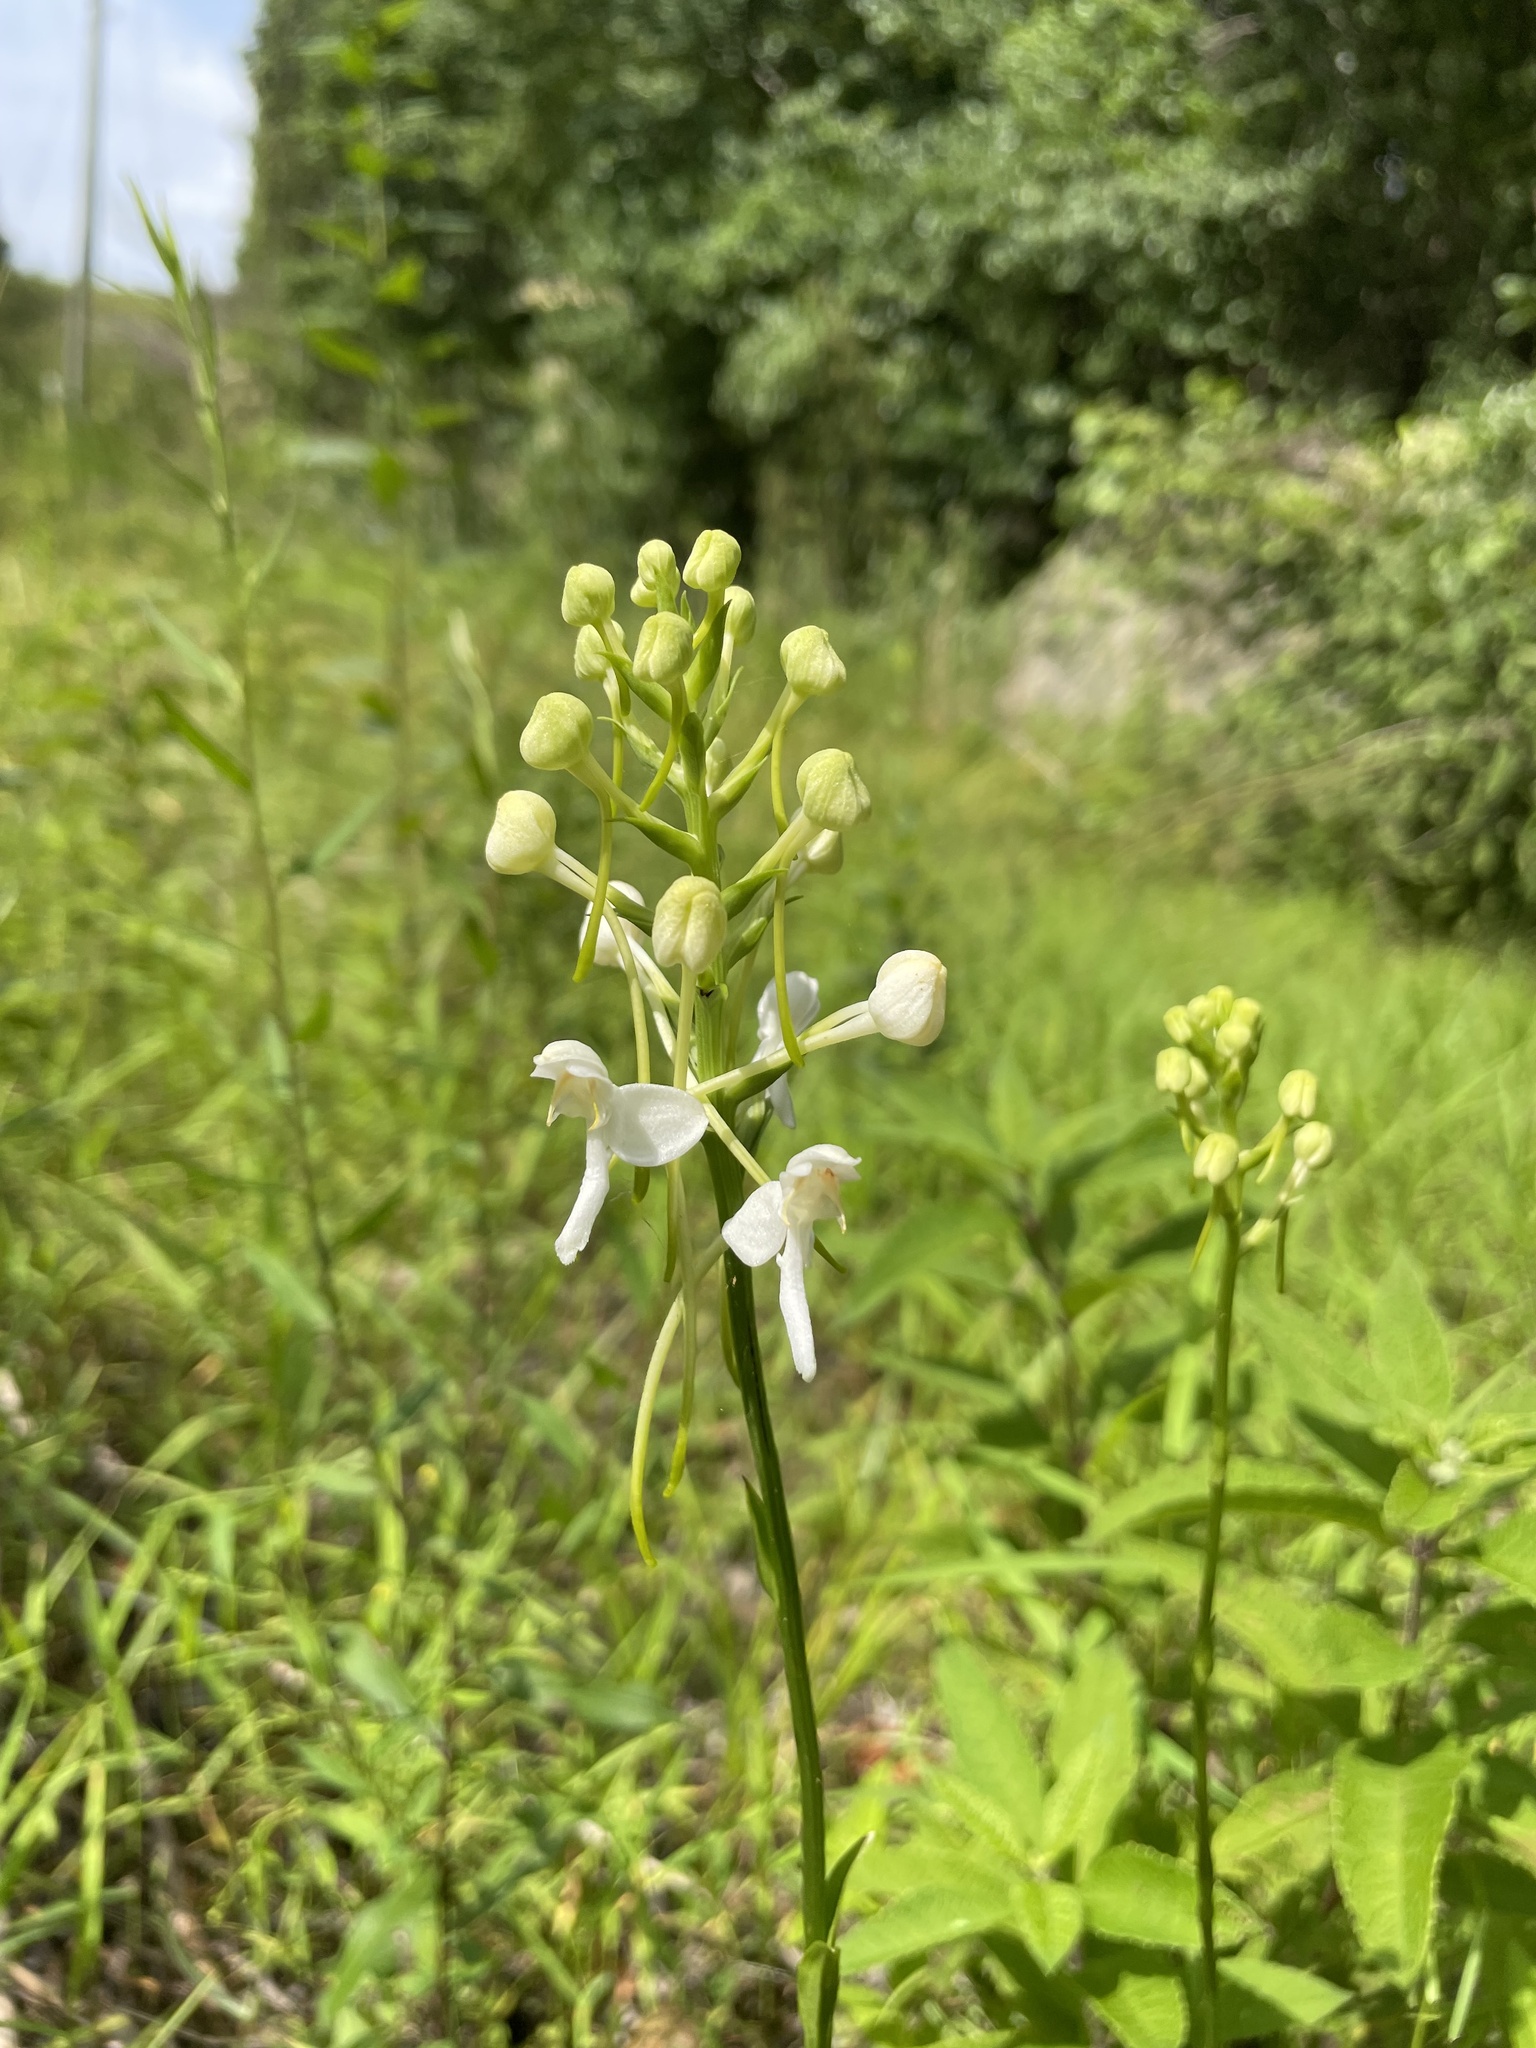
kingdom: Plantae
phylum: Tracheophyta
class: Liliopsida
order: Asparagales
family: Orchidaceae
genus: Platanthera
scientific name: Platanthera integrilabia
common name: White fringeless orchid
